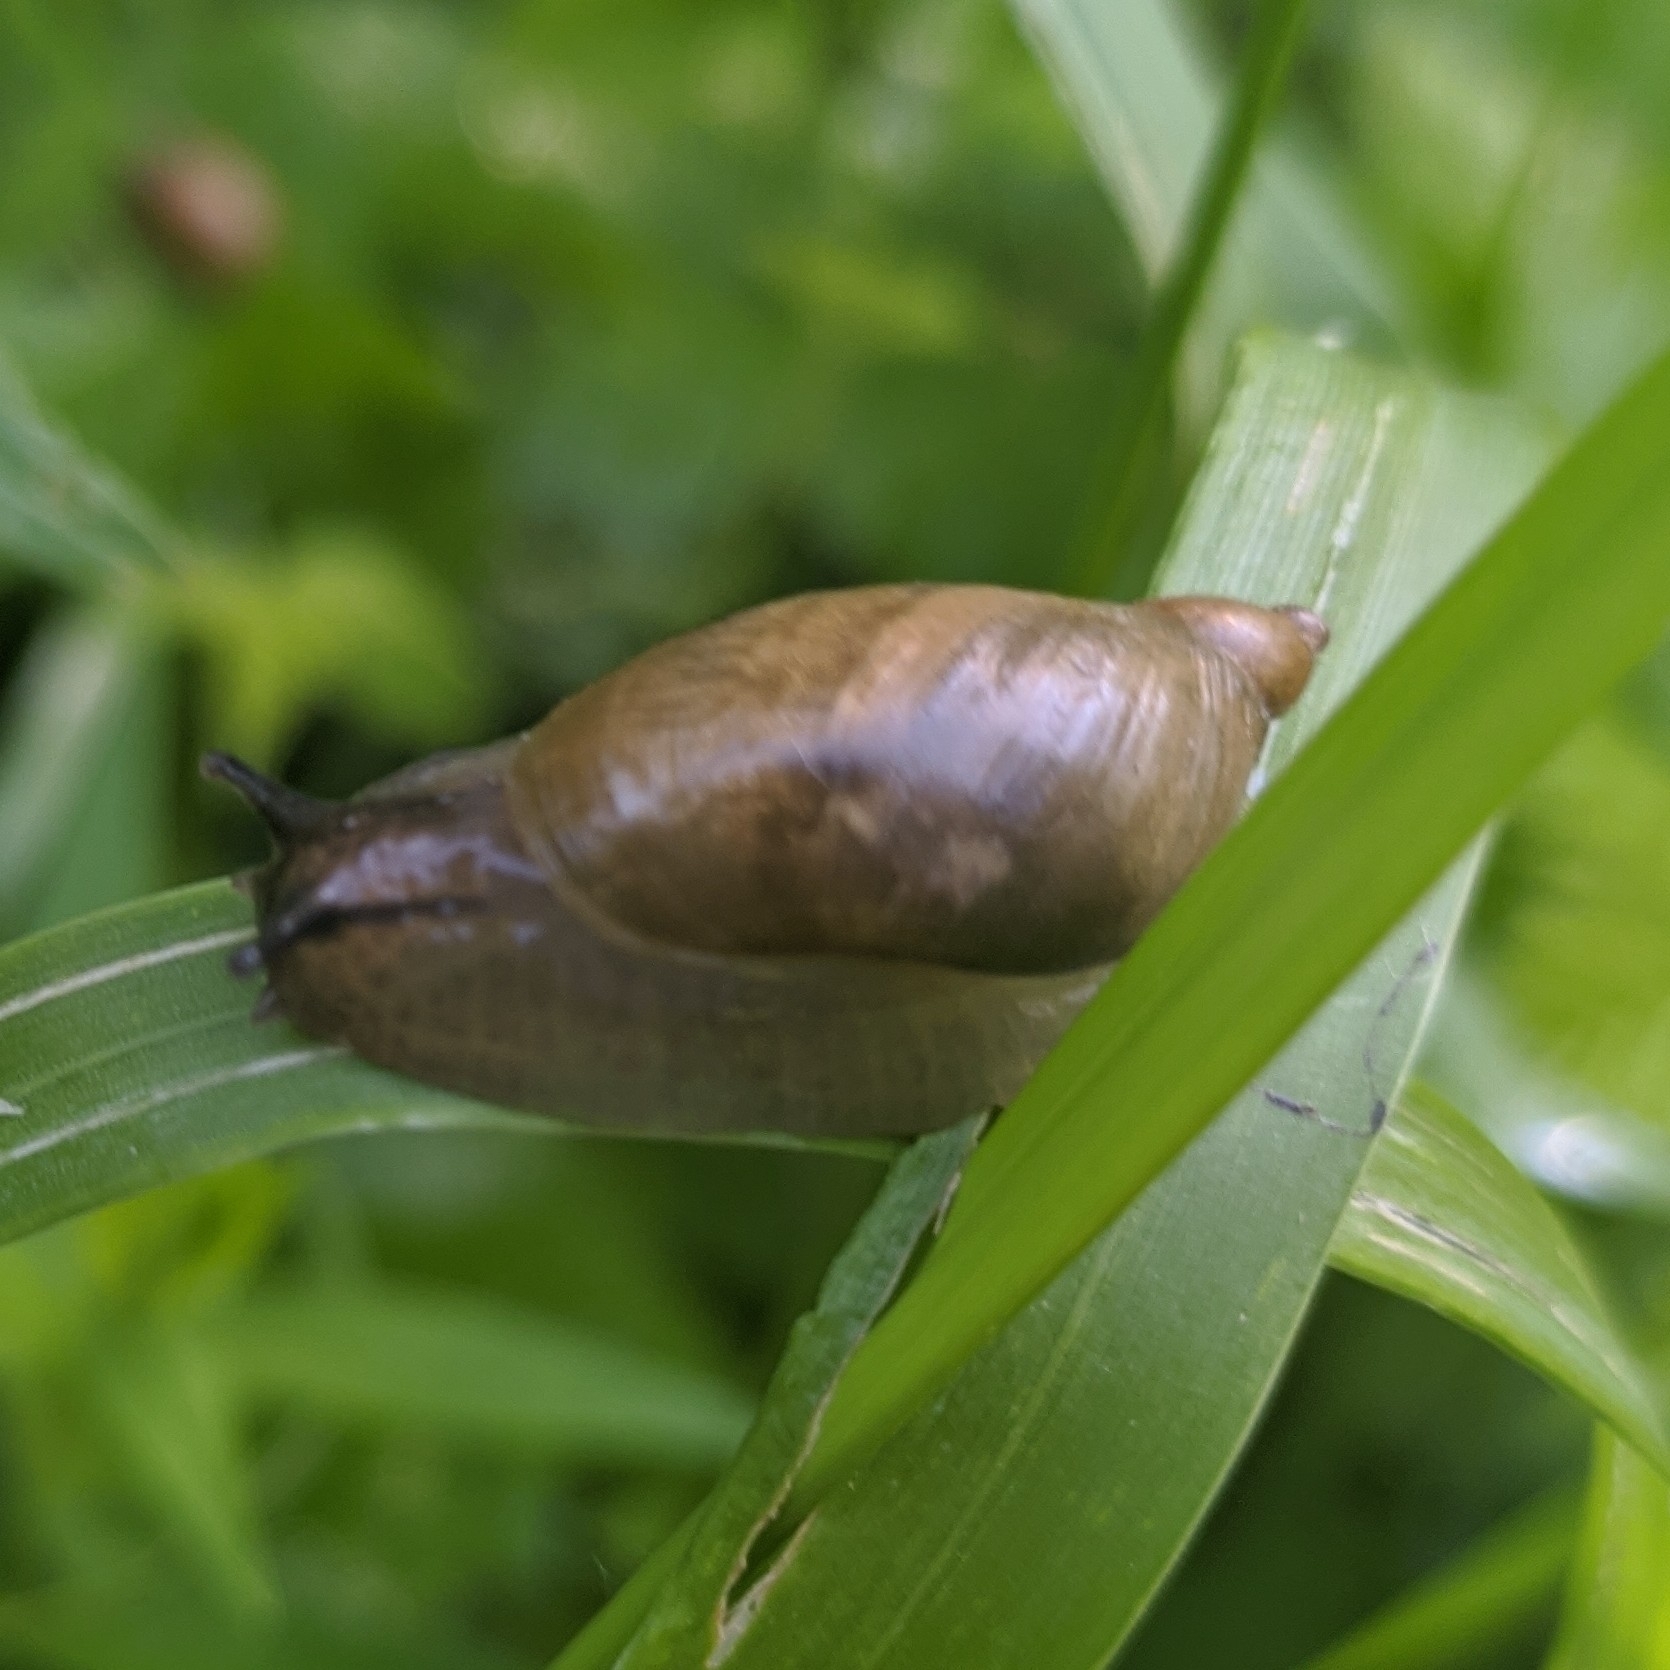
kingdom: Animalia
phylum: Mollusca
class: Gastropoda
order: Stylommatophora
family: Succineidae
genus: Succinea
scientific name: Succinea putris
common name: European ambersnail
